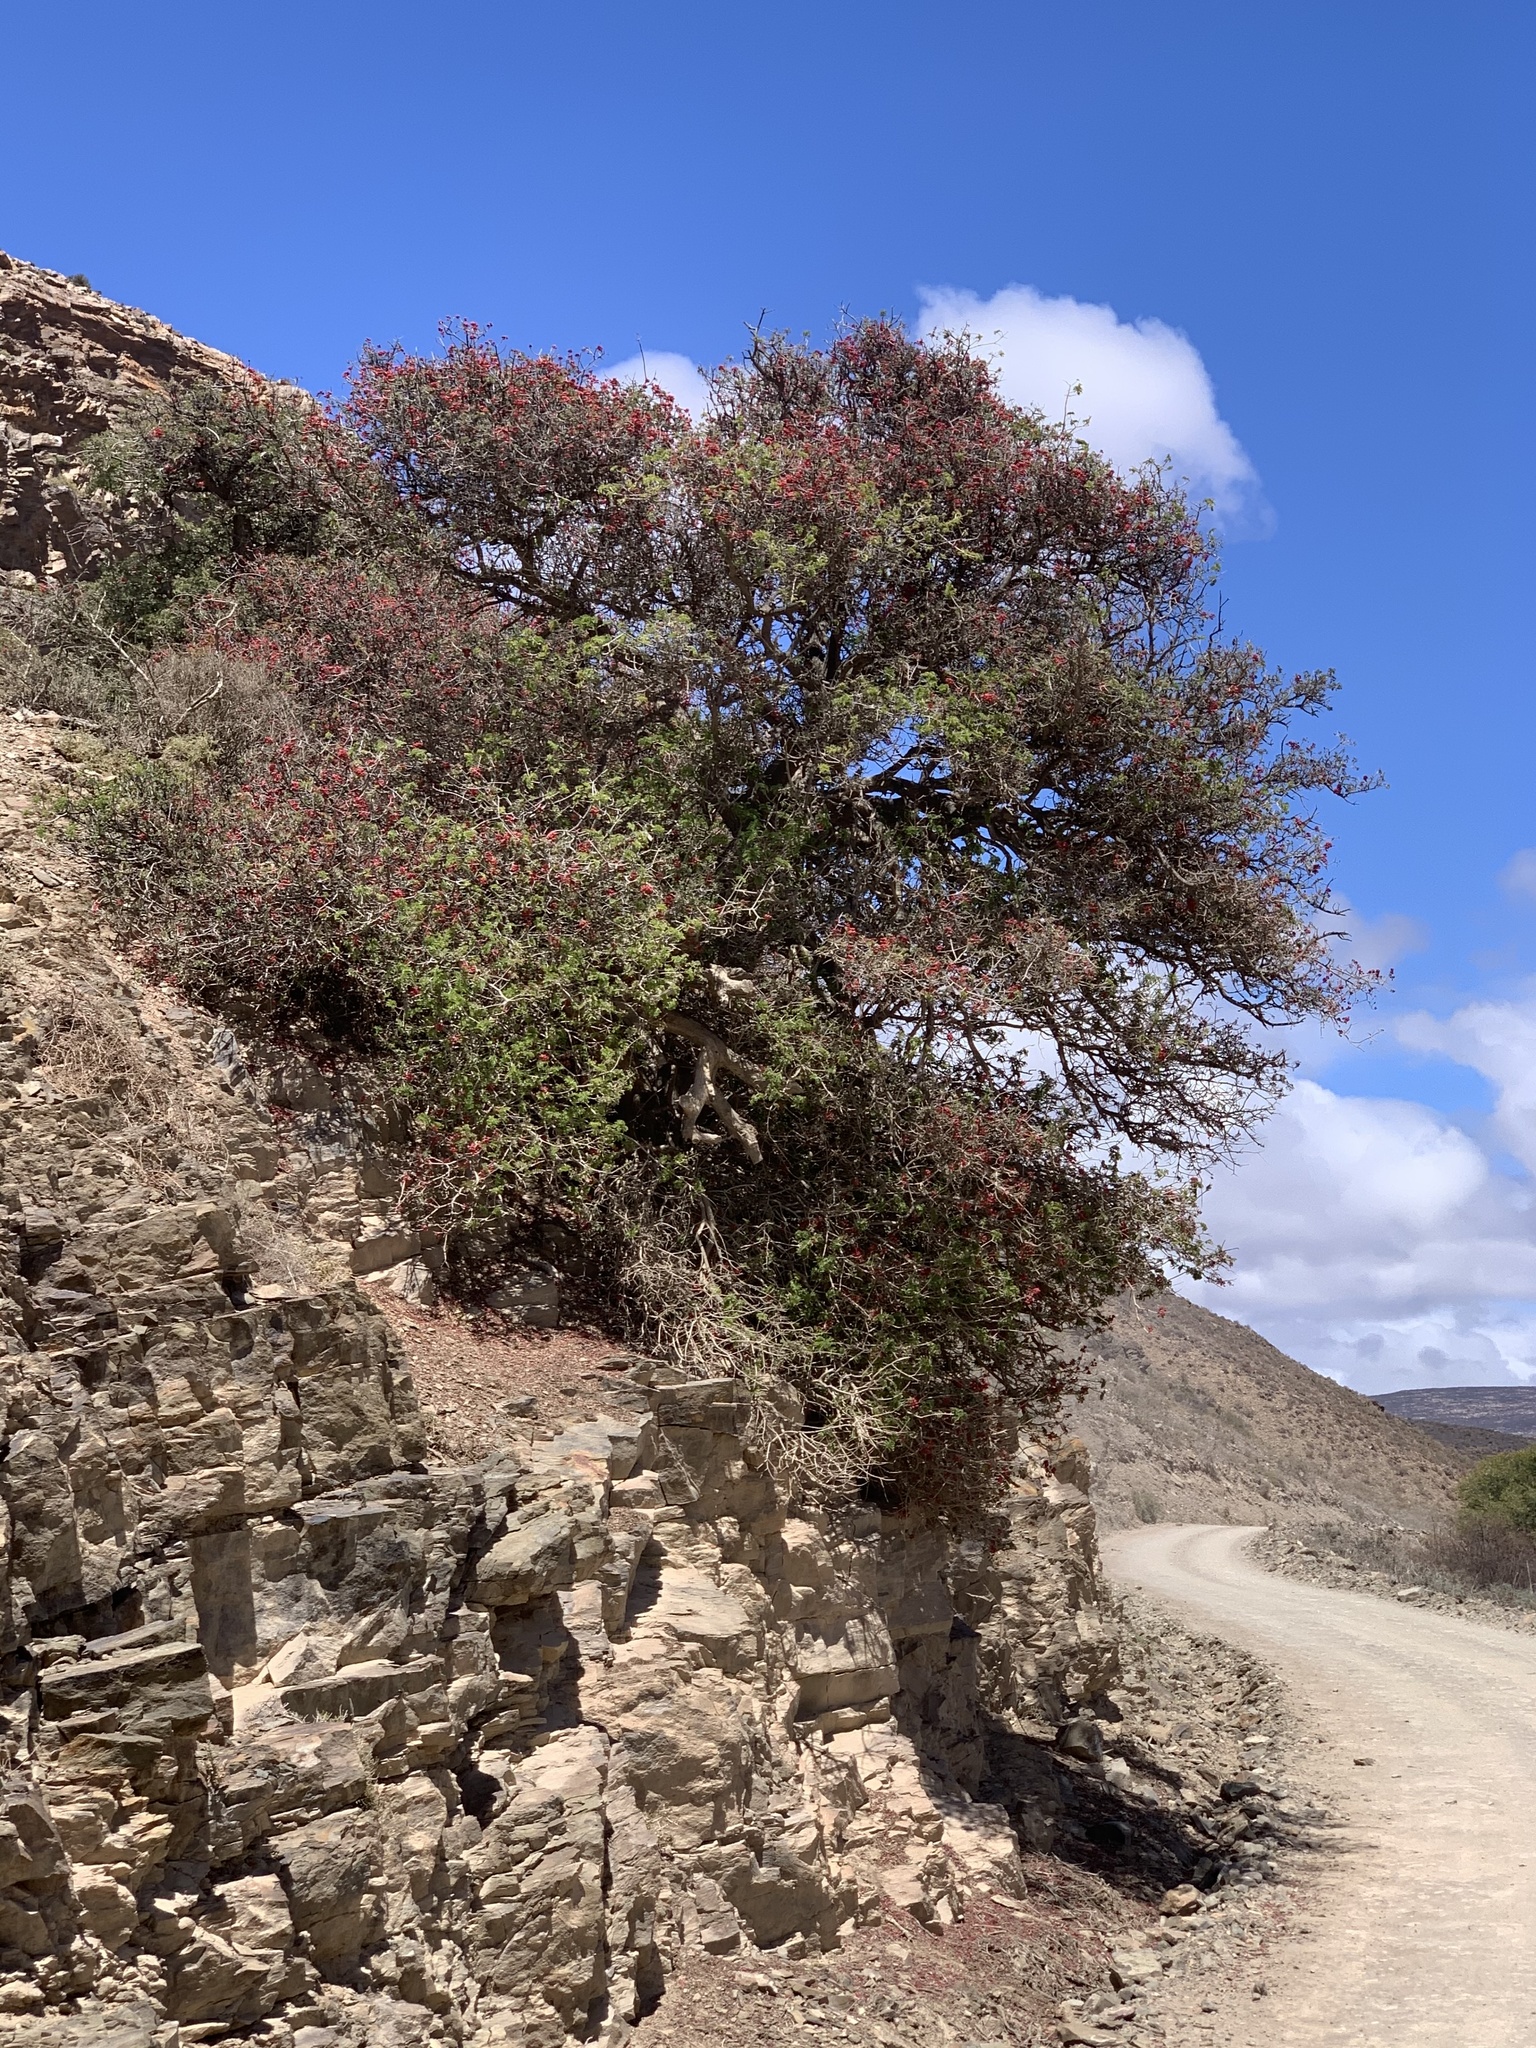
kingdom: Plantae
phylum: Tracheophyta
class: Magnoliopsida
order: Fabales
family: Fabaceae
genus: Schotia
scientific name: Schotia afra
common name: Hottentot's bean
